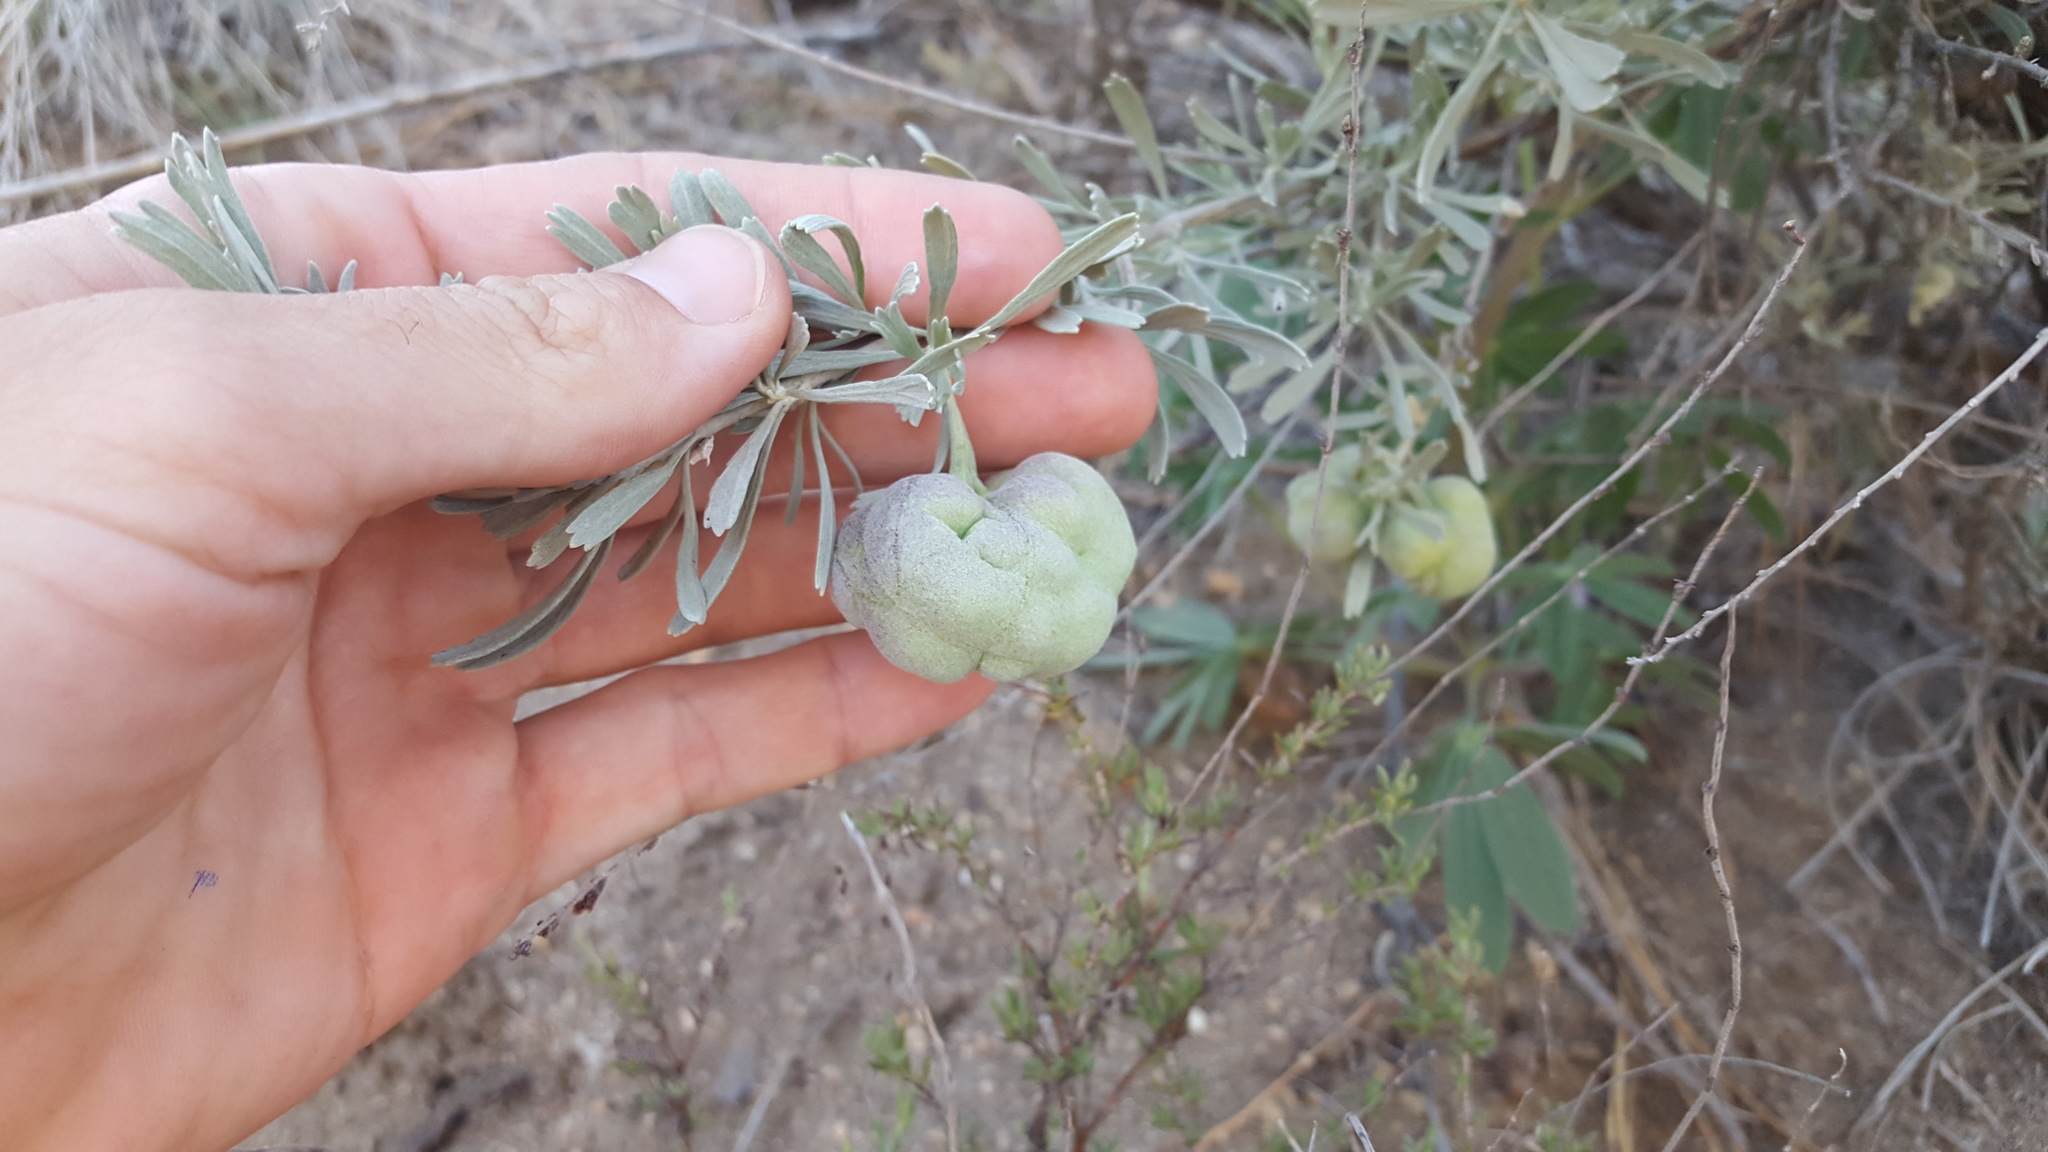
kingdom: Animalia
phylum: Arthropoda
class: Insecta
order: Diptera
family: Cecidomyiidae
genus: Rhopalomyia
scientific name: Rhopalomyia pomum
